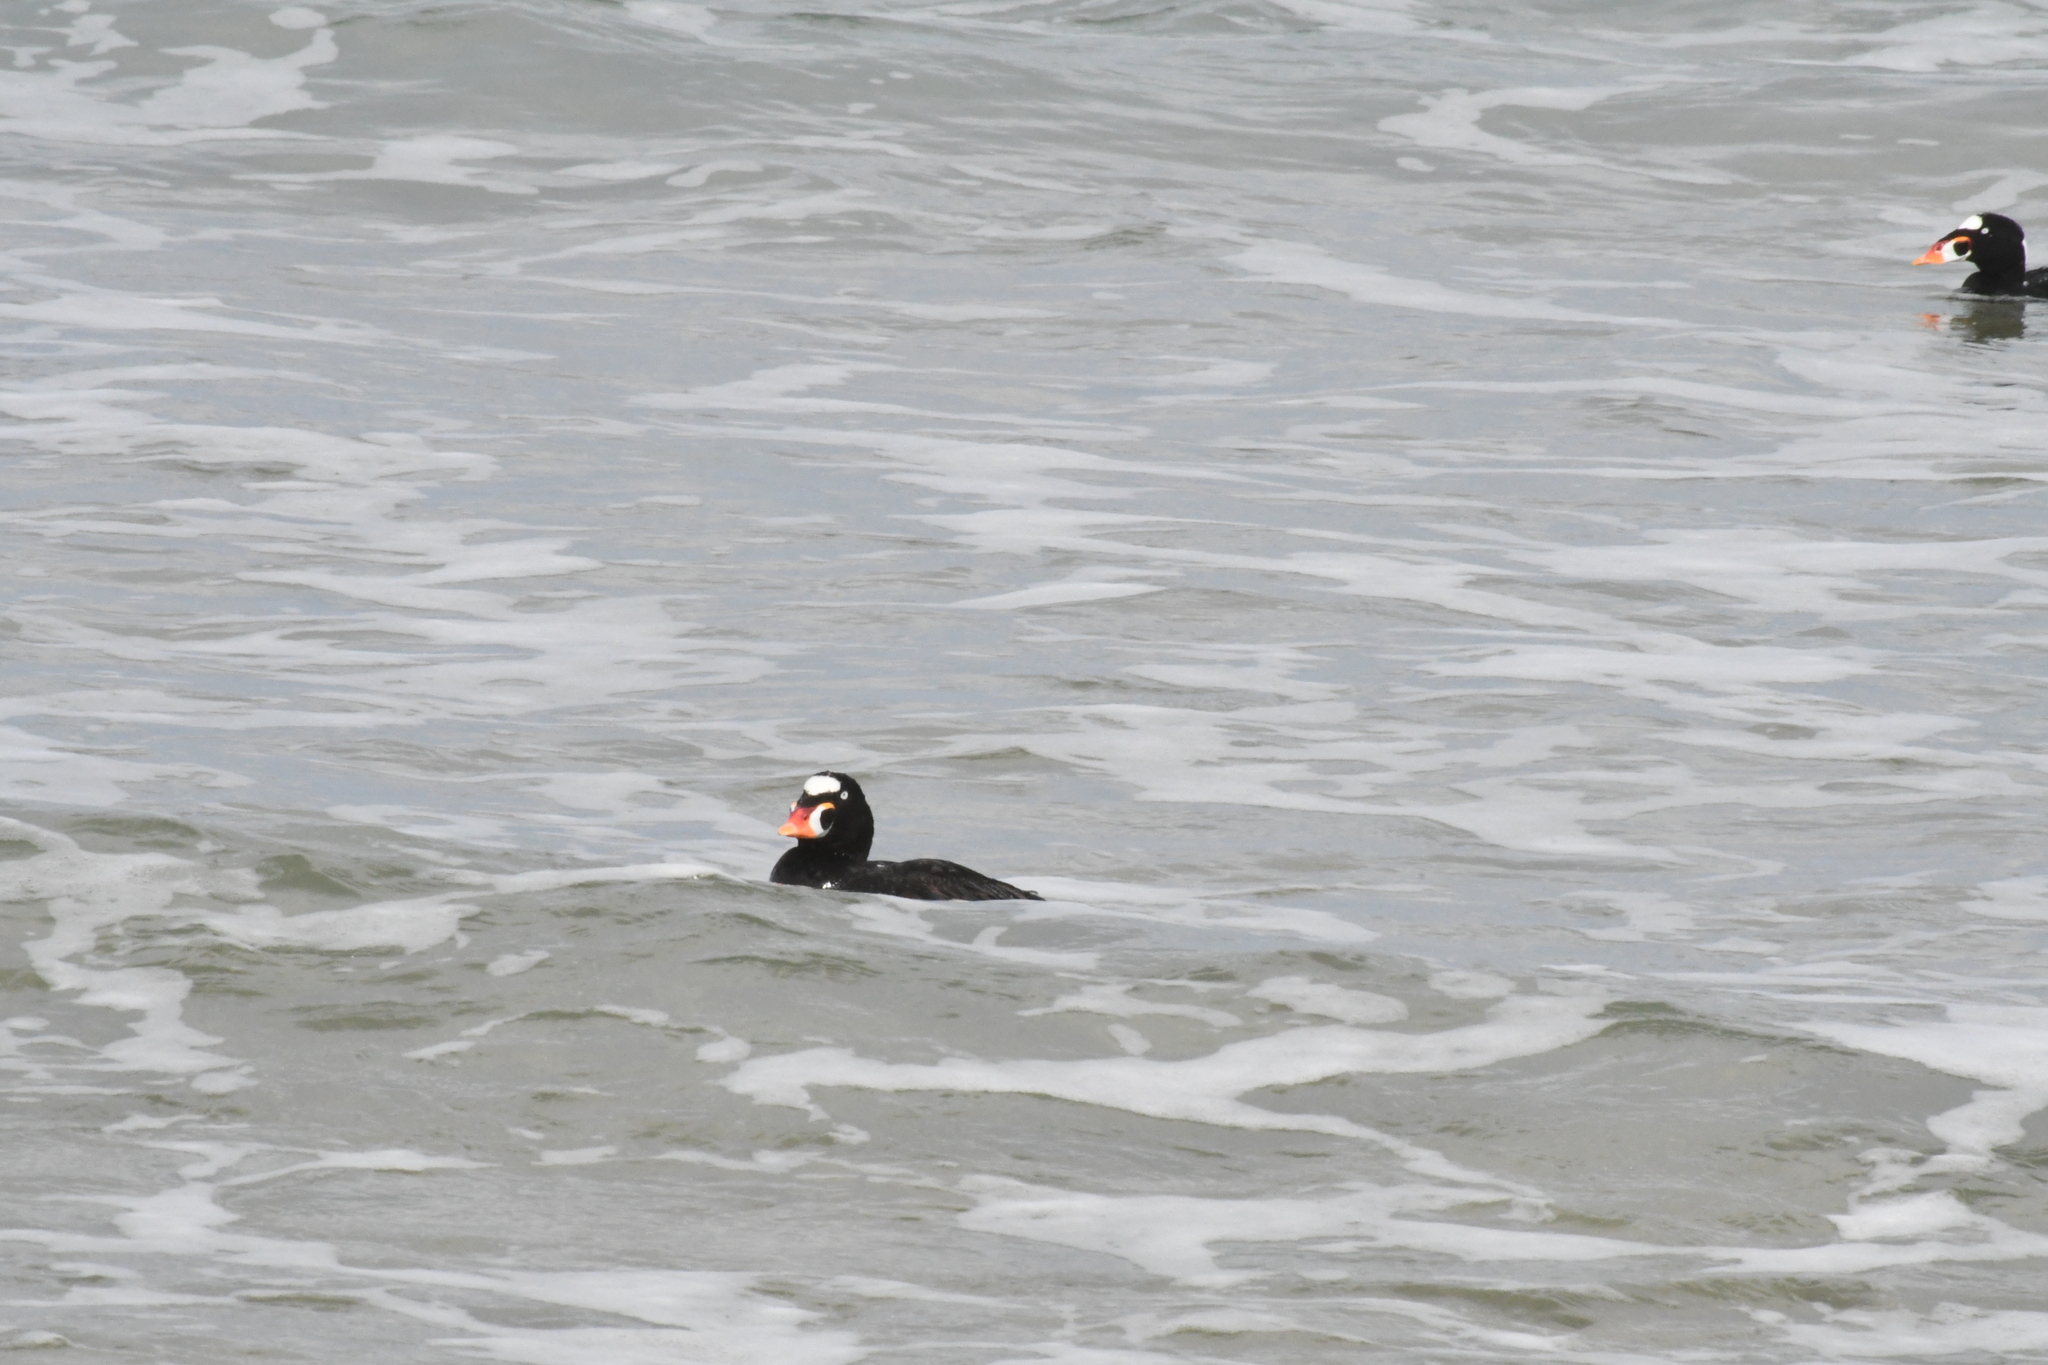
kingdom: Animalia
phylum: Chordata
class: Aves
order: Anseriformes
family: Anatidae
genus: Melanitta
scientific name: Melanitta perspicillata
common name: Surf scoter
